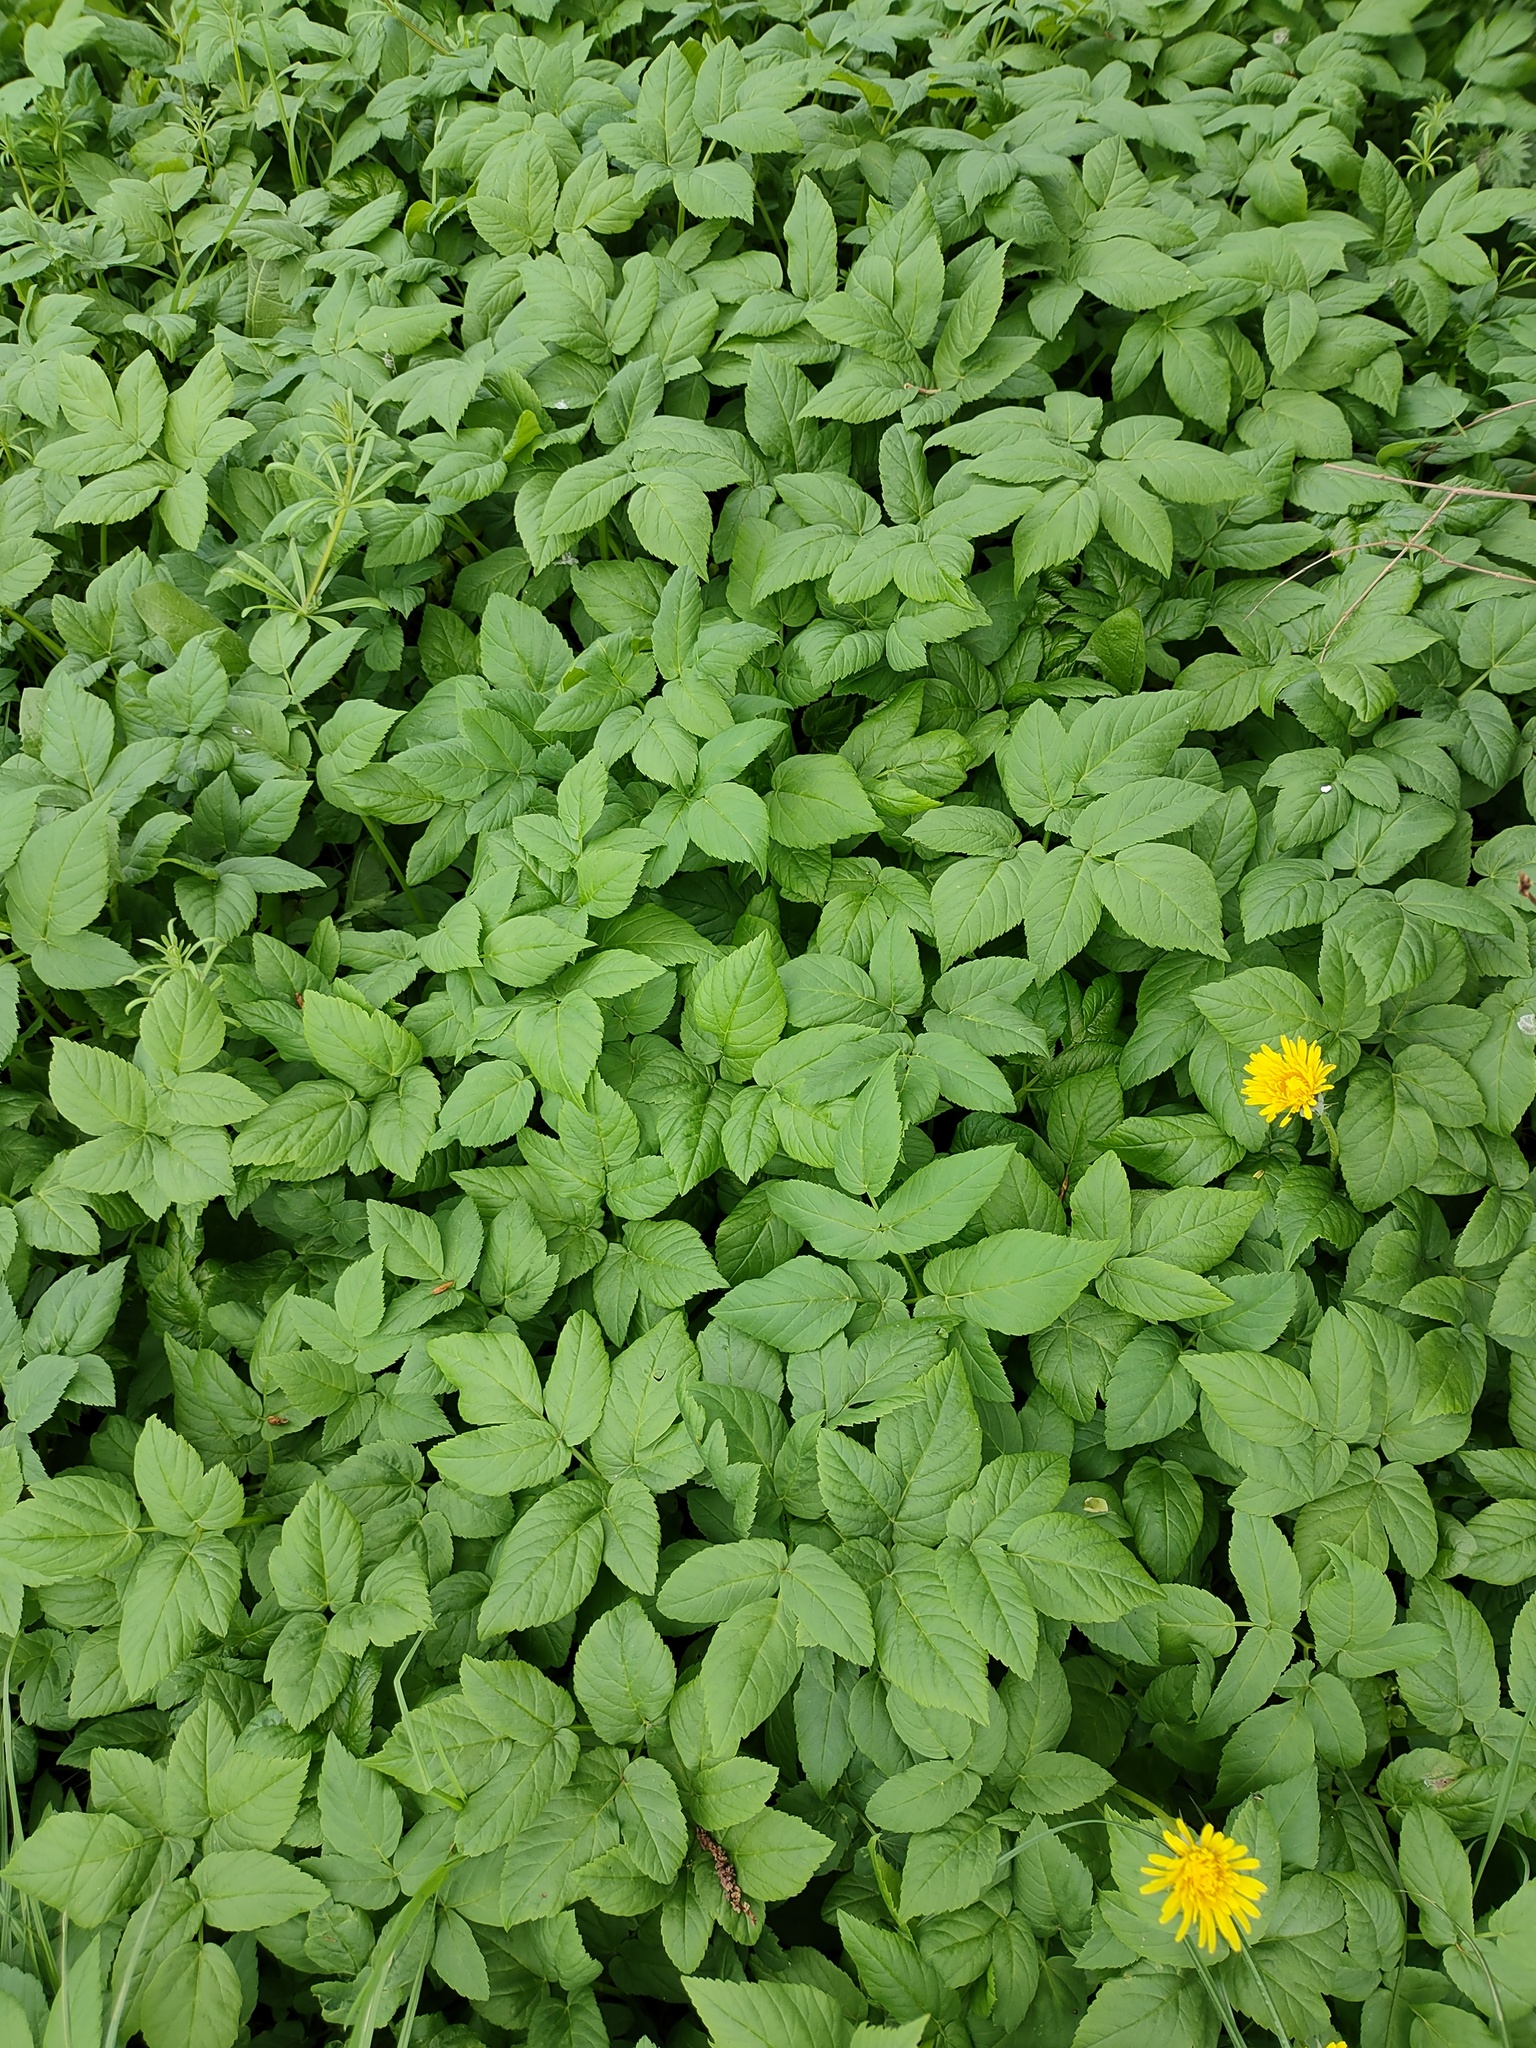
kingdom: Plantae
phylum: Tracheophyta
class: Magnoliopsida
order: Apiales
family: Apiaceae
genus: Aegopodium
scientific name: Aegopodium podagraria
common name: Ground-elder
